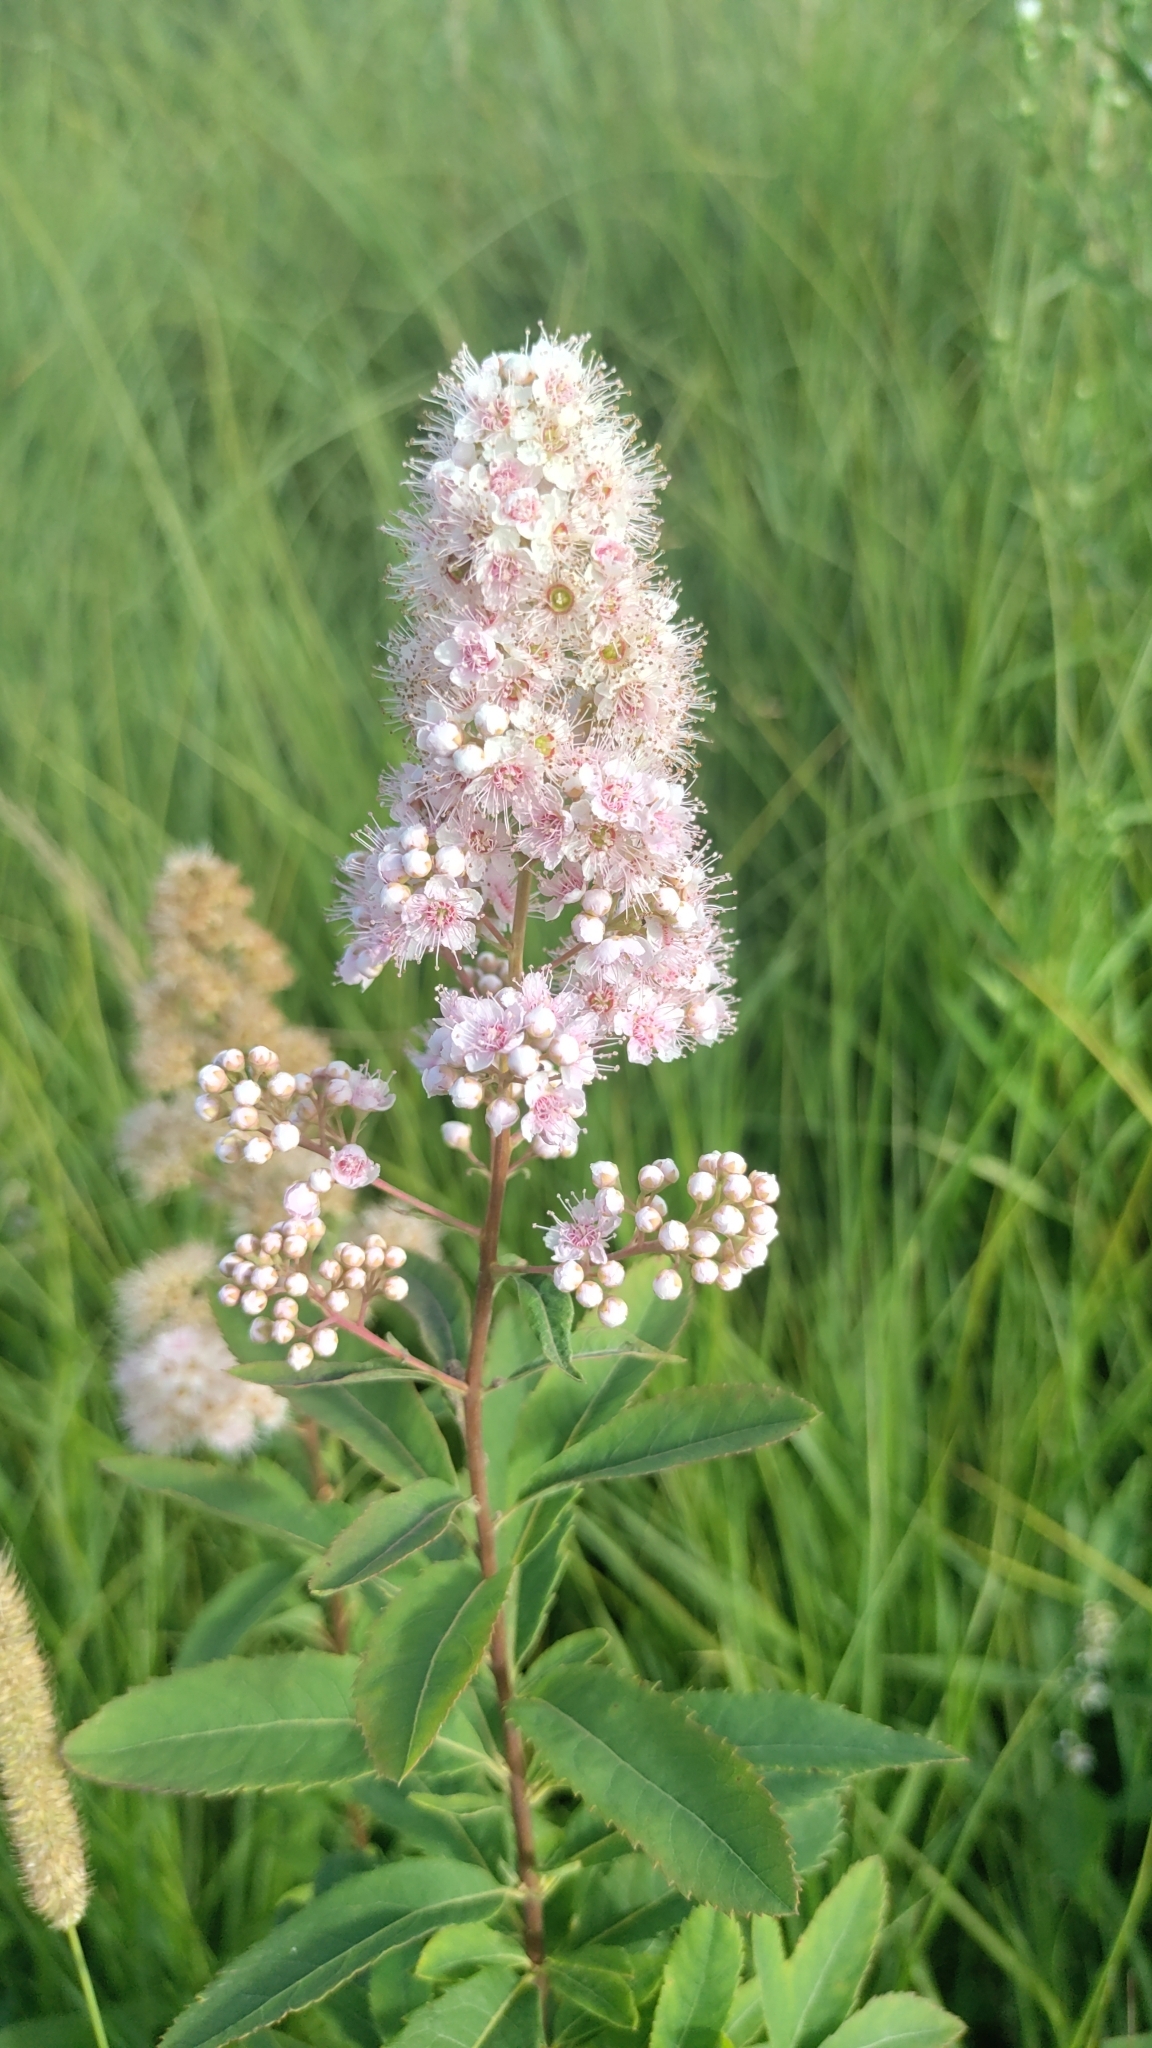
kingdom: Plantae
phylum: Tracheophyta
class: Magnoliopsida
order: Rosales
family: Rosaceae
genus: Spiraea
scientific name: Spiraea alba
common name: Pale bridewort
